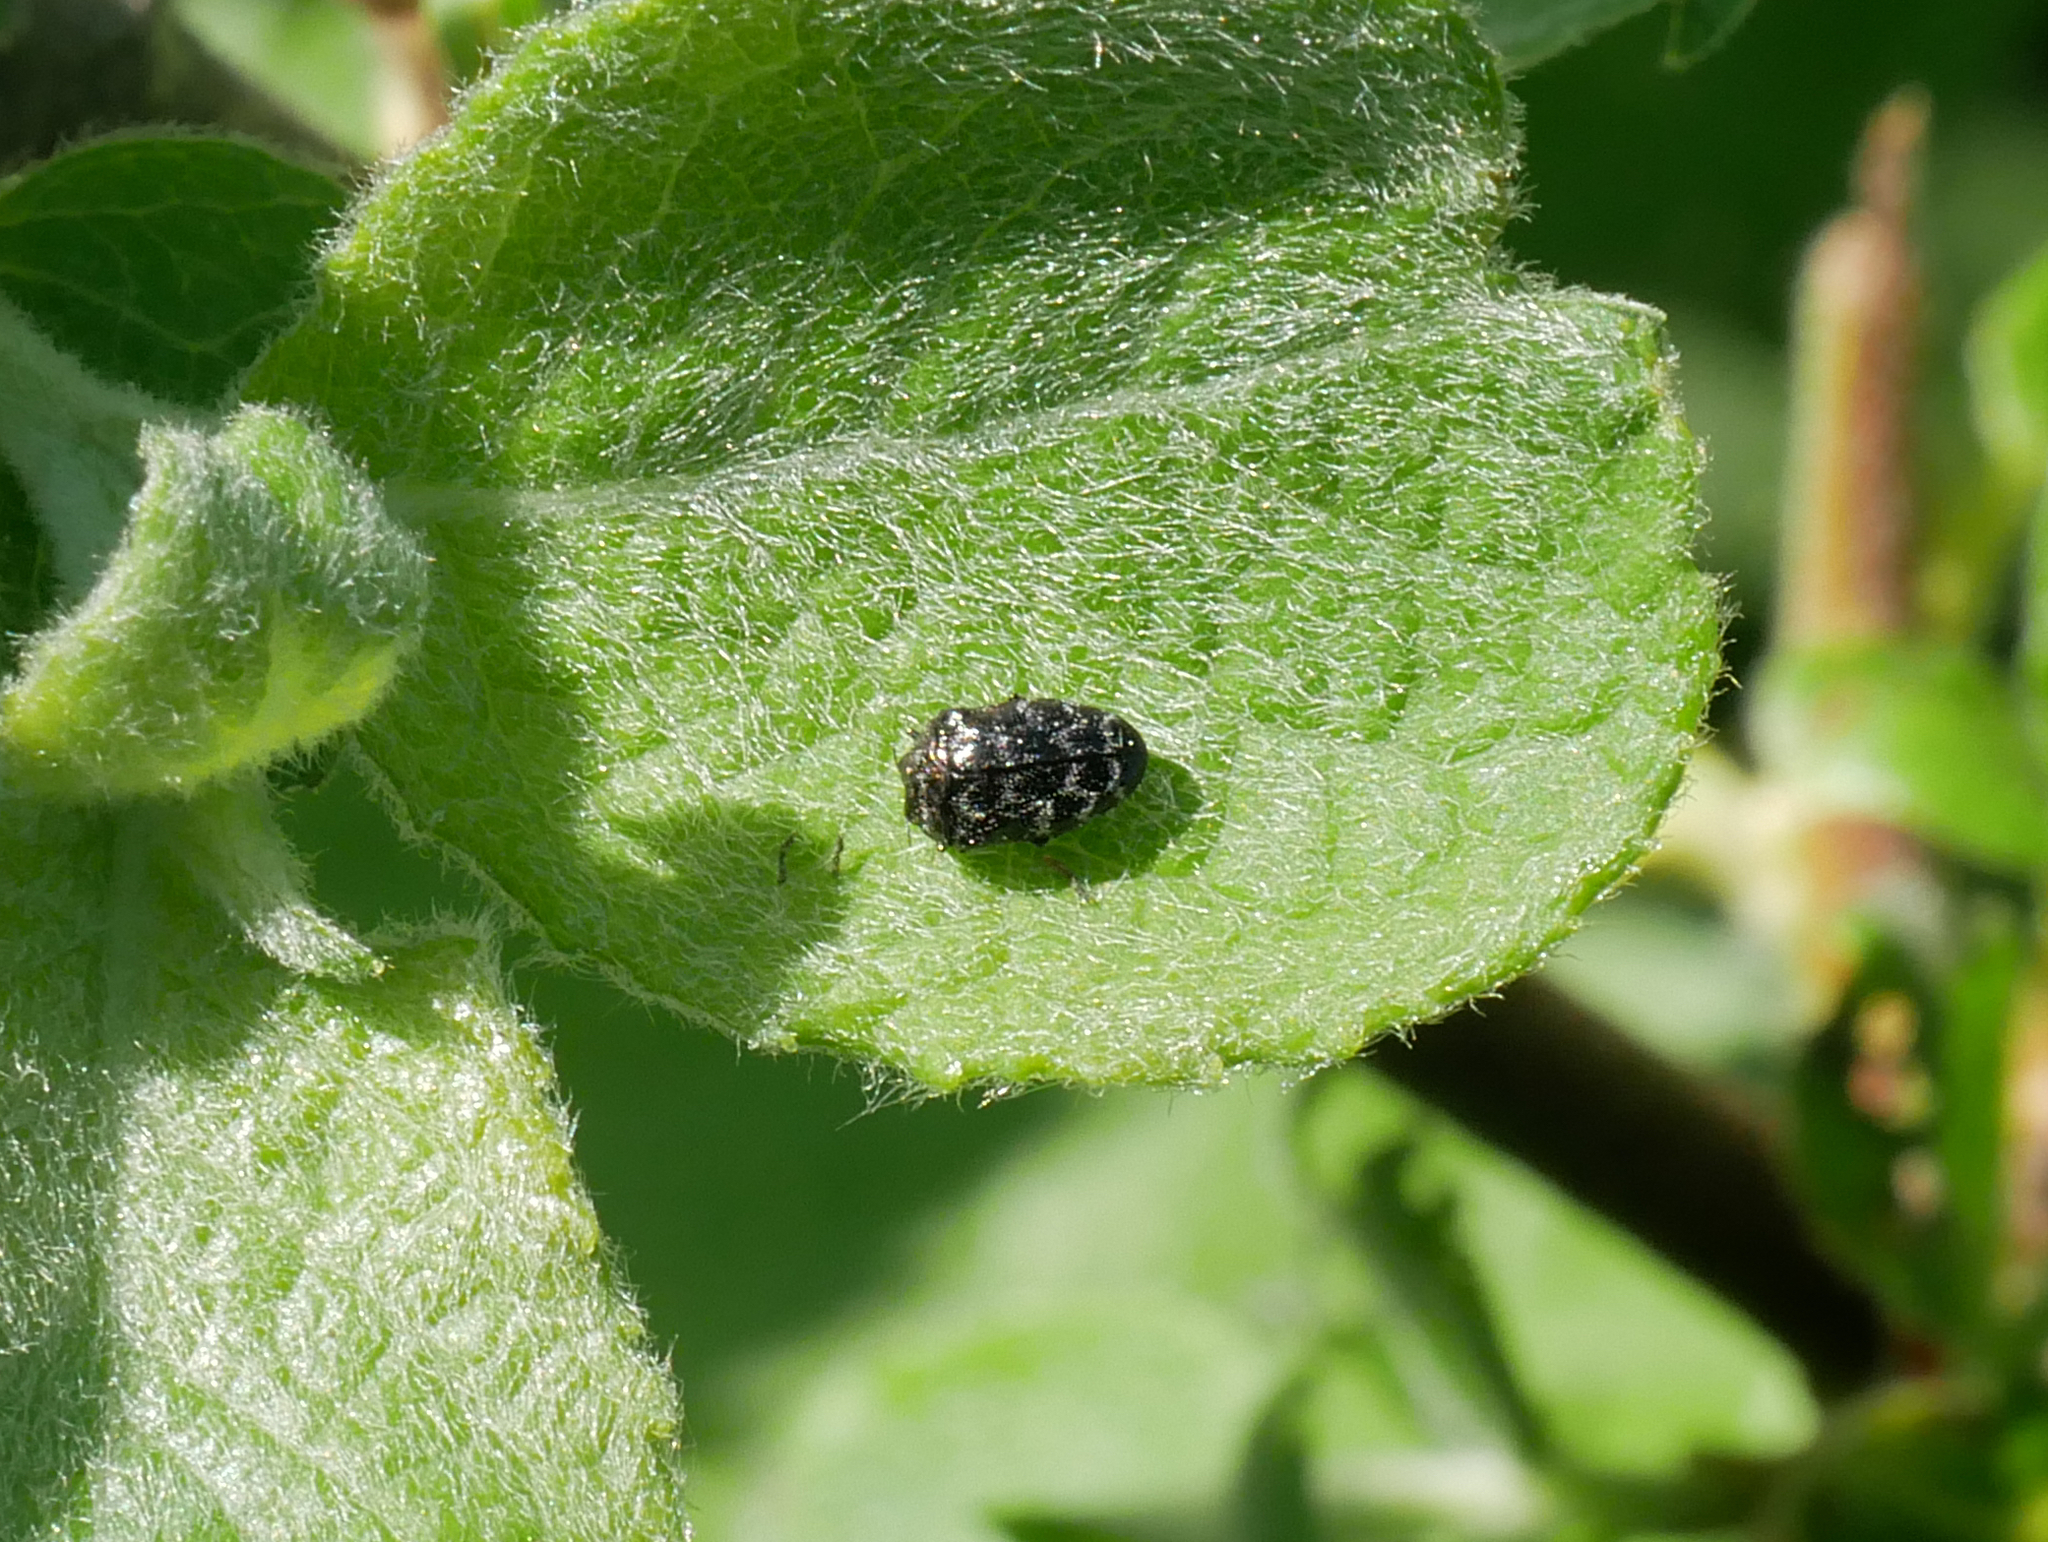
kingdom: Animalia
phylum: Arthropoda
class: Insecta
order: Coleoptera
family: Buprestidae
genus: Trachys
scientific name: Trachys minutus
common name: Metallic wood-boring beetle
